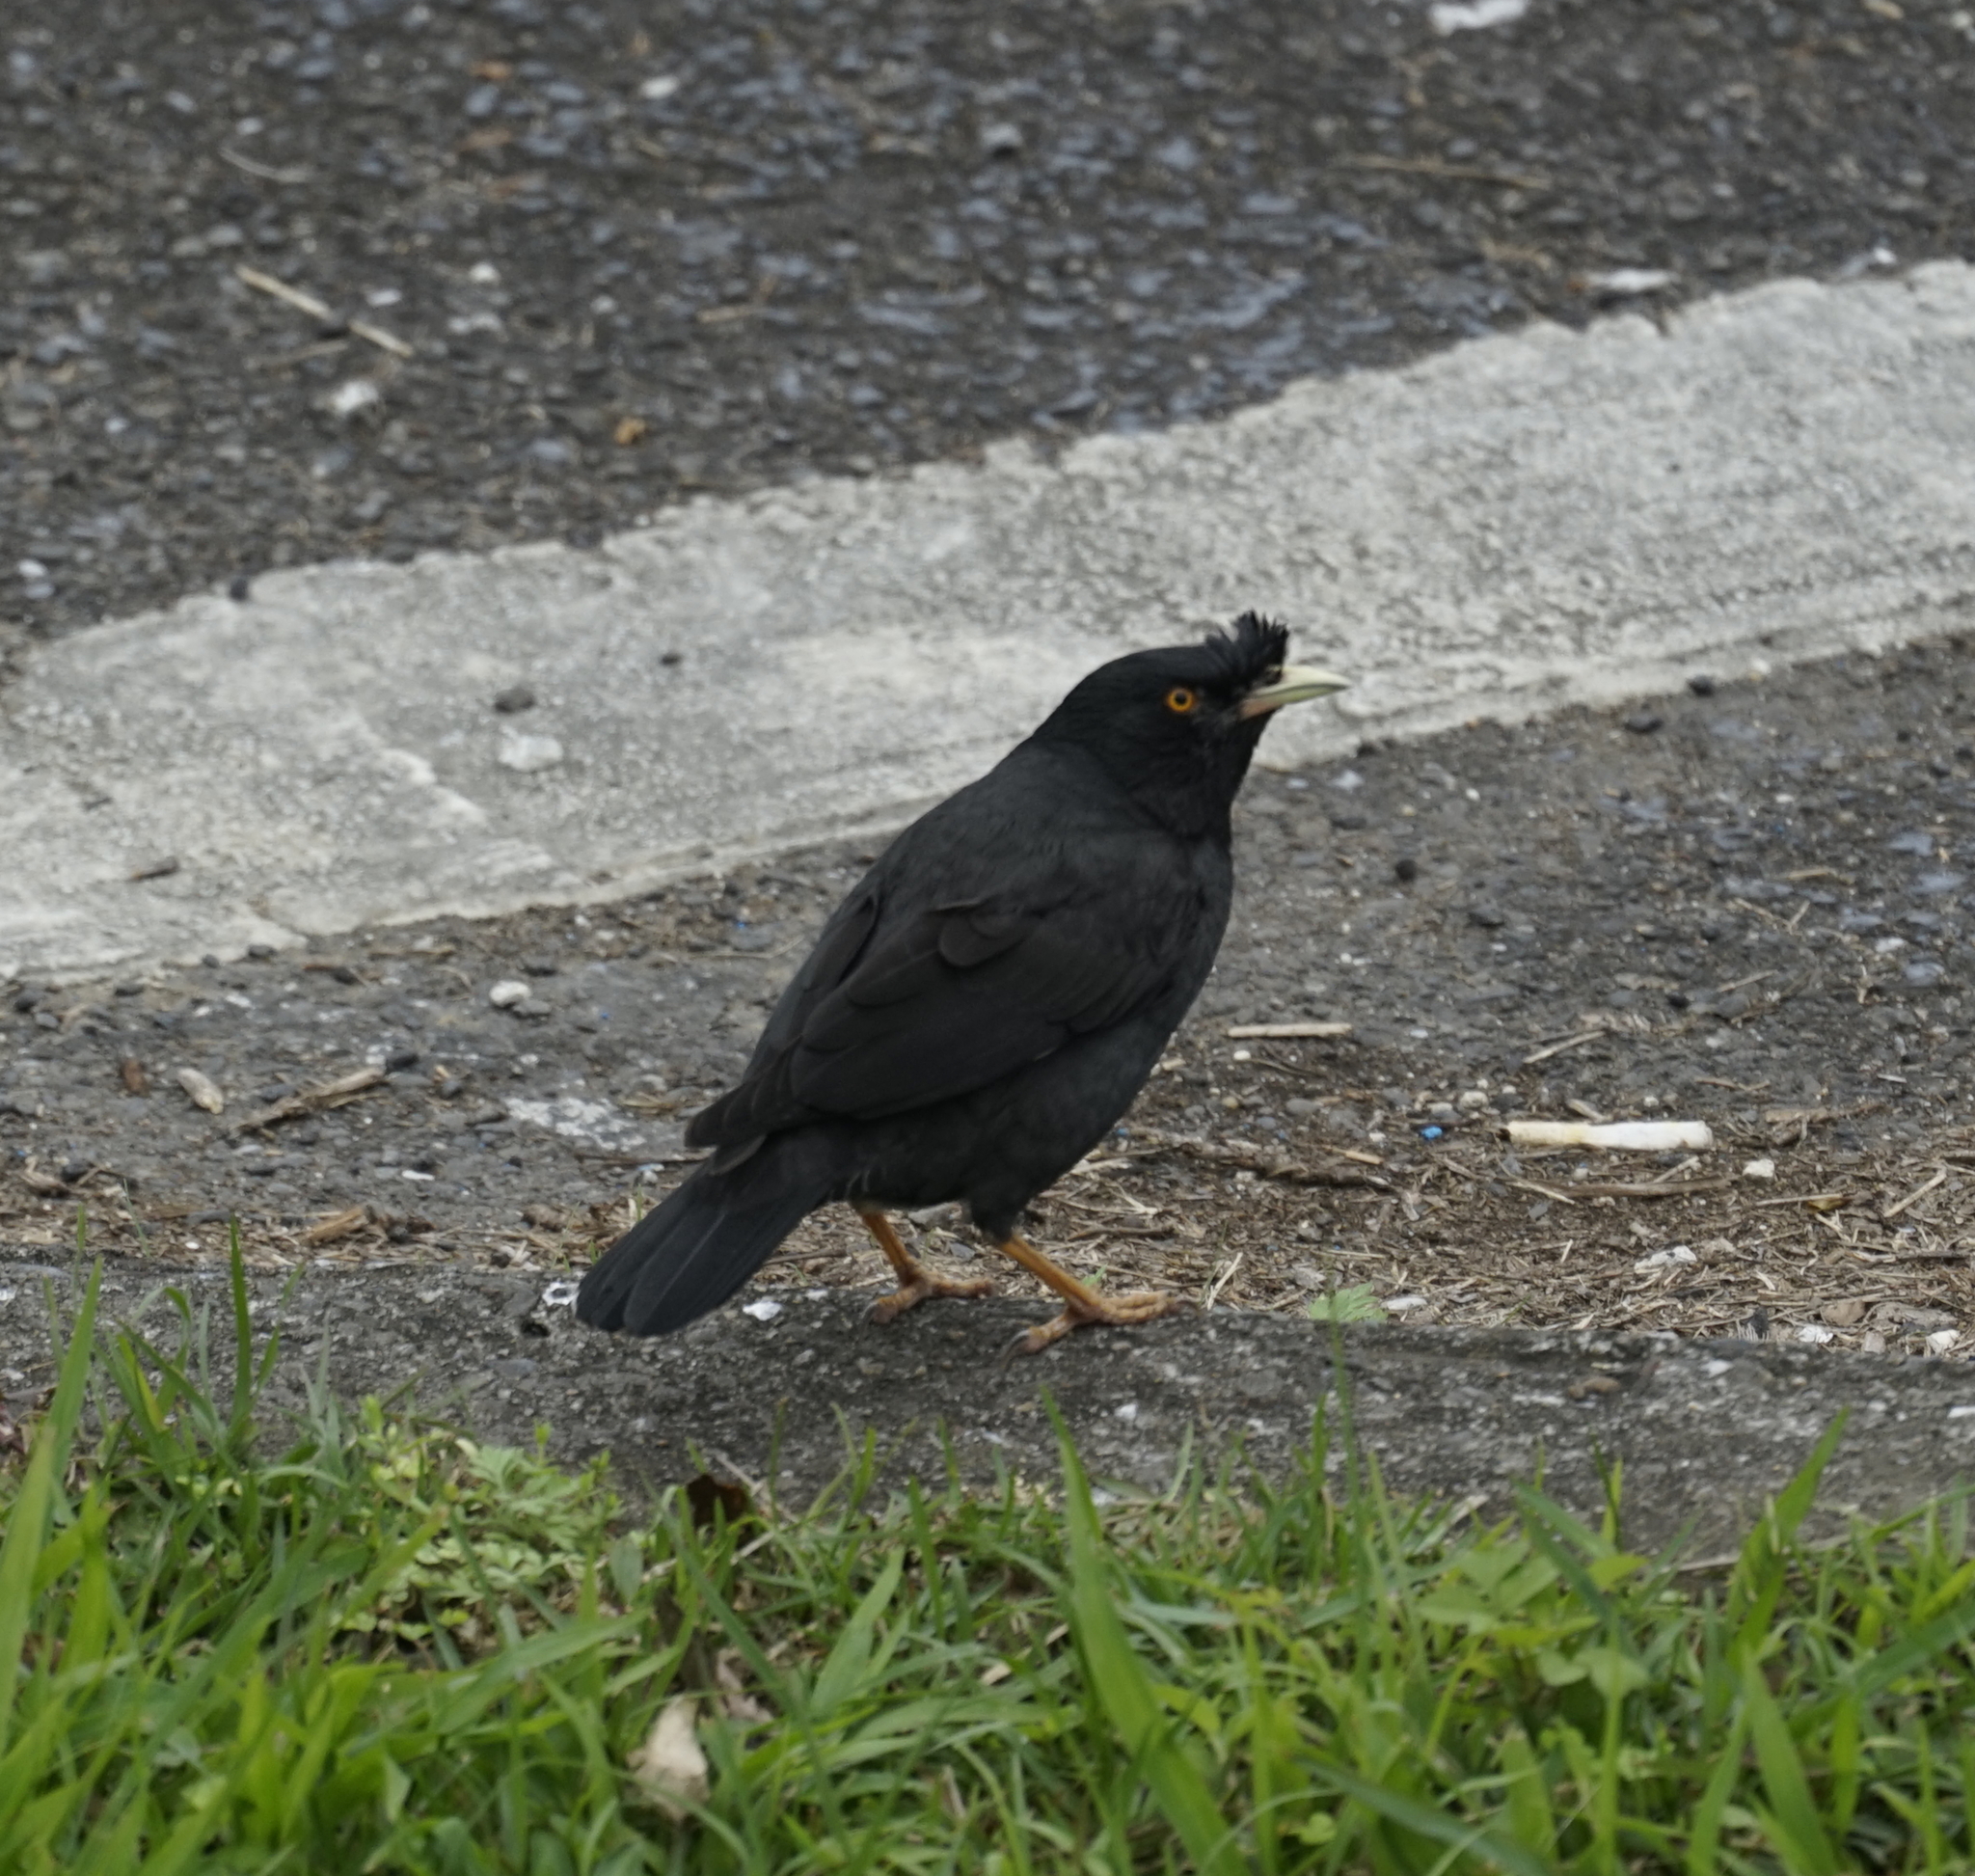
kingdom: Animalia
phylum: Chordata
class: Aves
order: Passeriformes
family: Sturnidae
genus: Acridotheres
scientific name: Acridotheres cristatellus
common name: Crested myna
